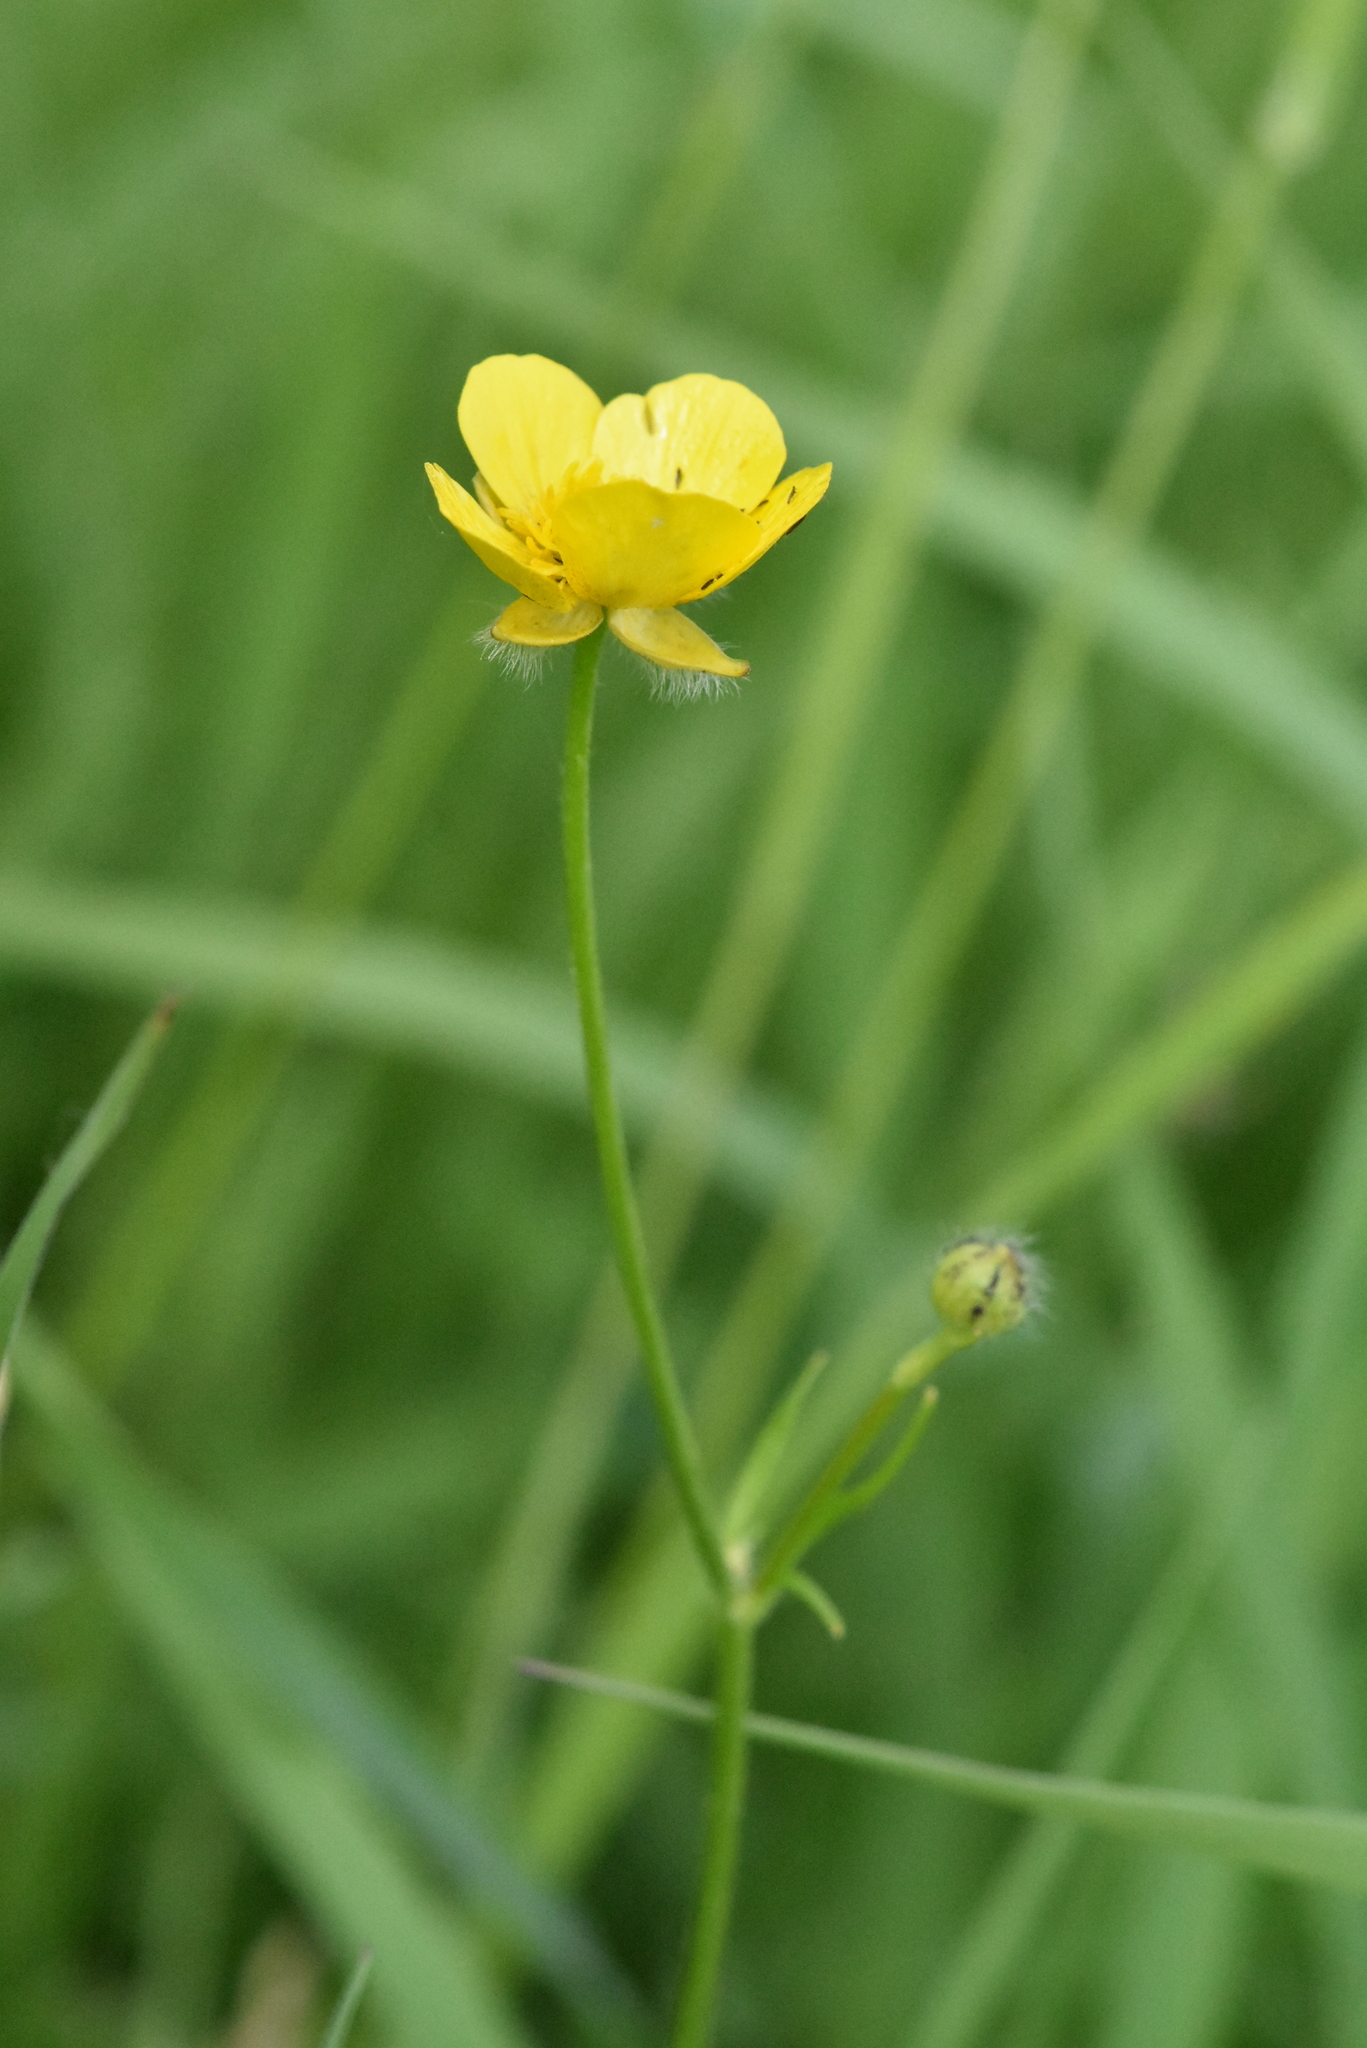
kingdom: Plantae
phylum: Tracheophyta
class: Magnoliopsida
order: Ranunculales
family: Ranunculaceae
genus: Ranunculus
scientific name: Ranunculus polyanthemos
